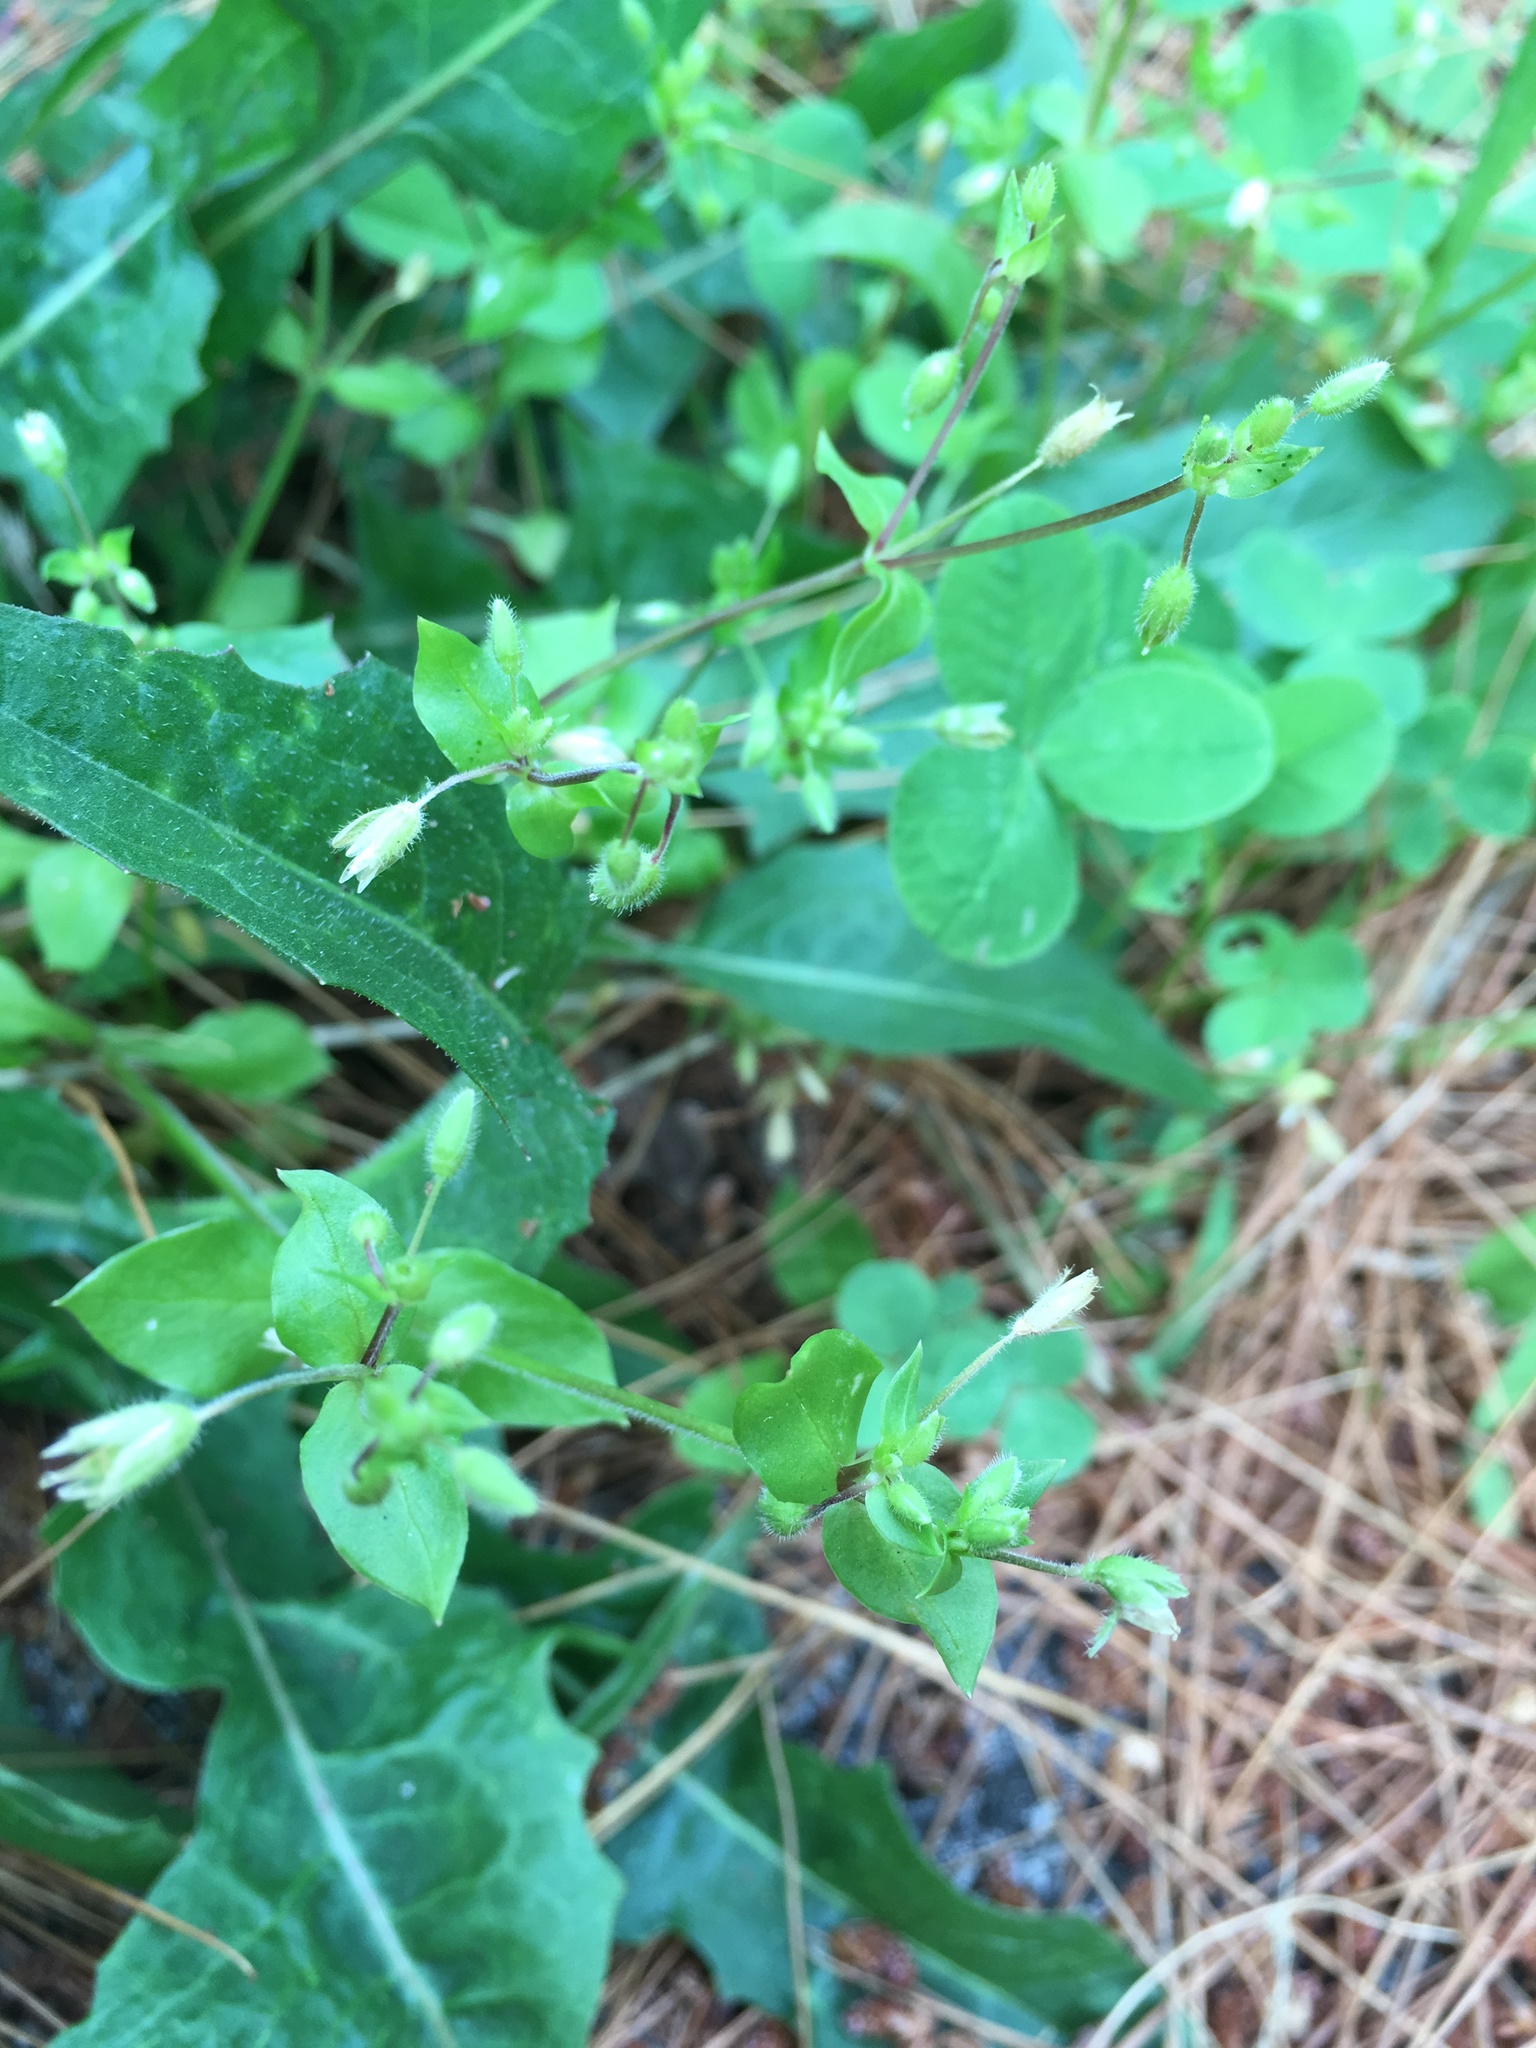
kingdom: Plantae
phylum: Tracheophyta
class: Magnoliopsida
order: Caryophyllales
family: Caryophyllaceae
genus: Stellaria
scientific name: Stellaria media
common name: Common chickweed
